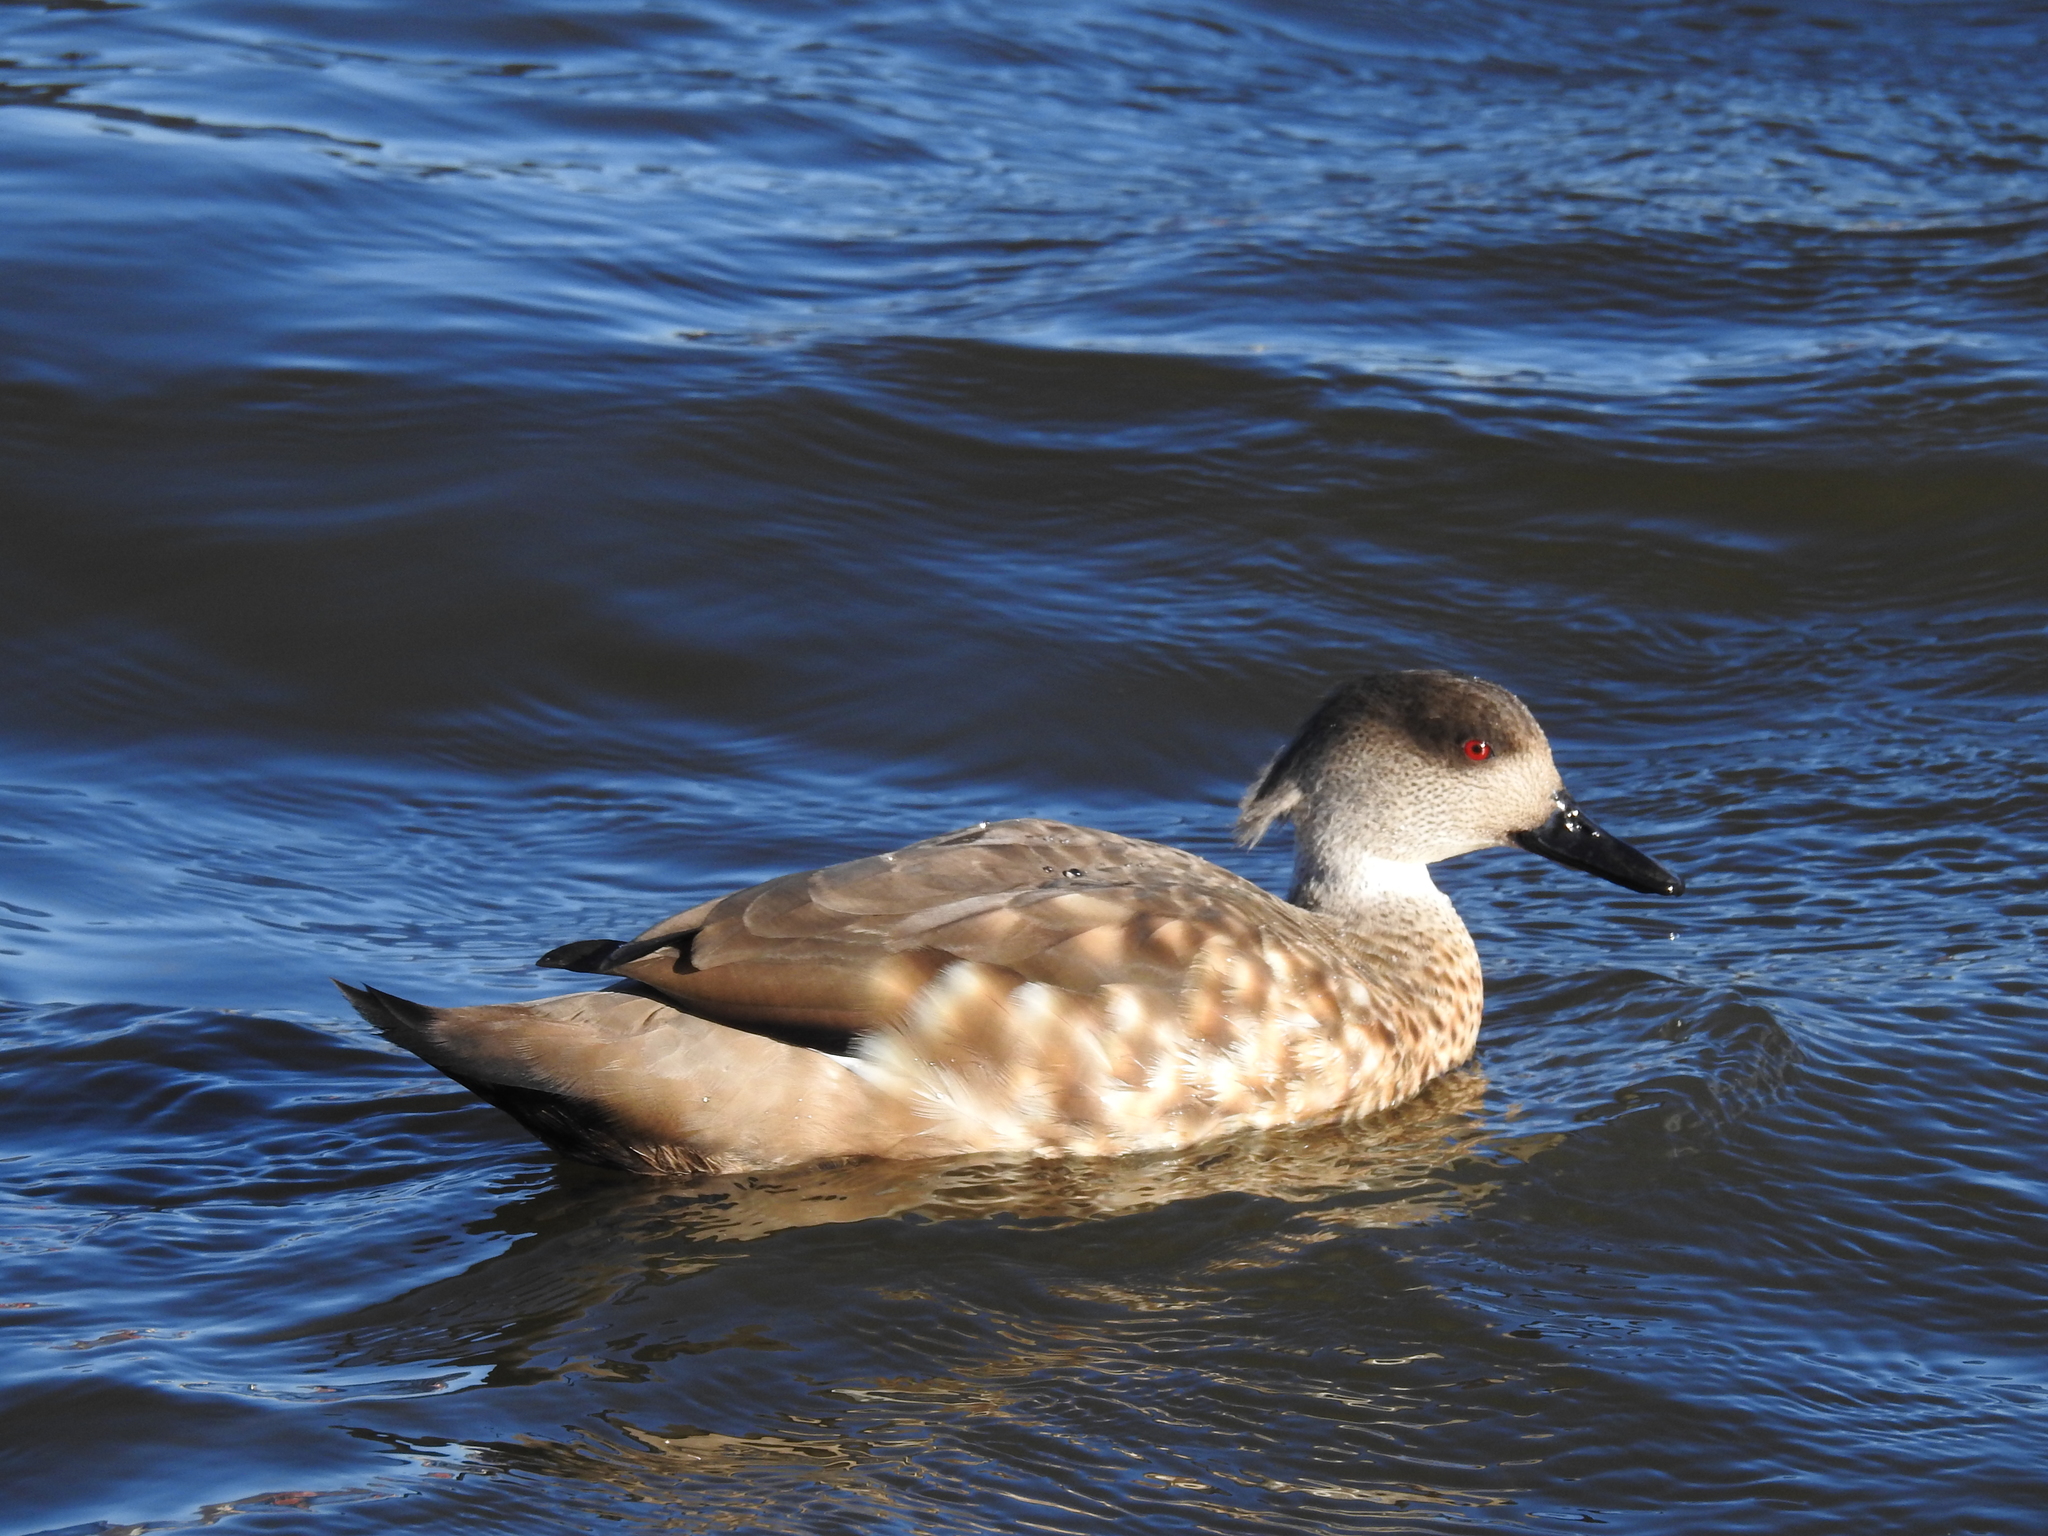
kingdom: Animalia
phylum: Chordata
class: Aves
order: Anseriformes
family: Anatidae
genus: Lophonetta
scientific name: Lophonetta specularioides
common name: Crested duck
